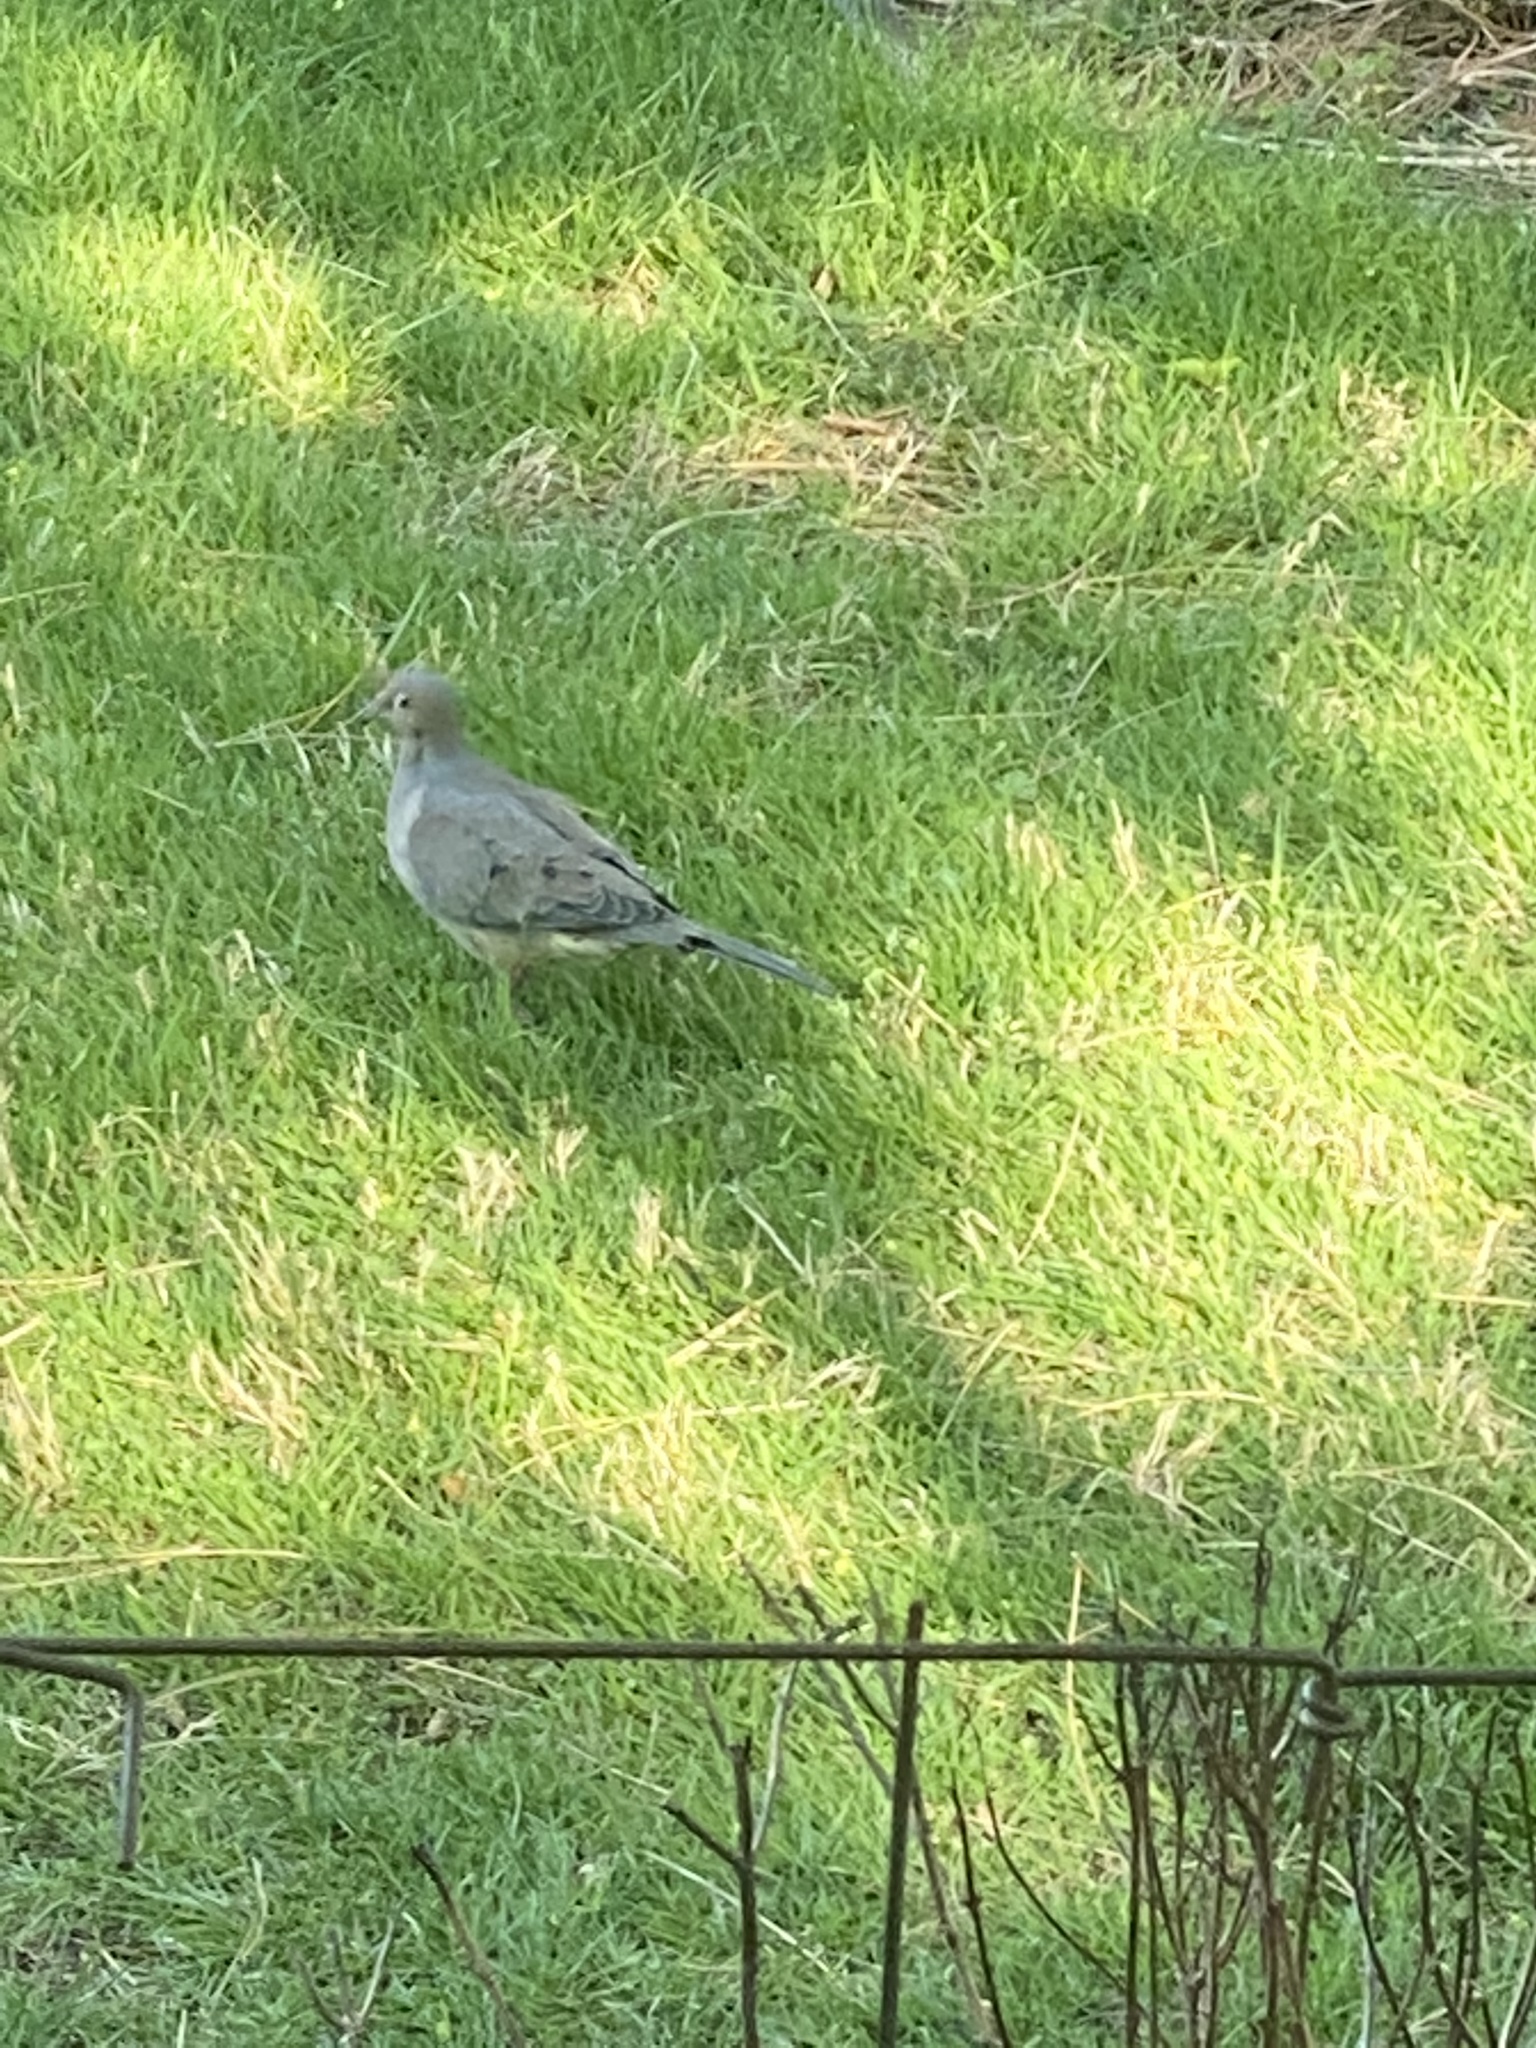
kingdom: Animalia
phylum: Chordata
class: Aves
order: Columbiformes
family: Columbidae
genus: Zenaida
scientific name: Zenaida macroura
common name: Mourning dove
